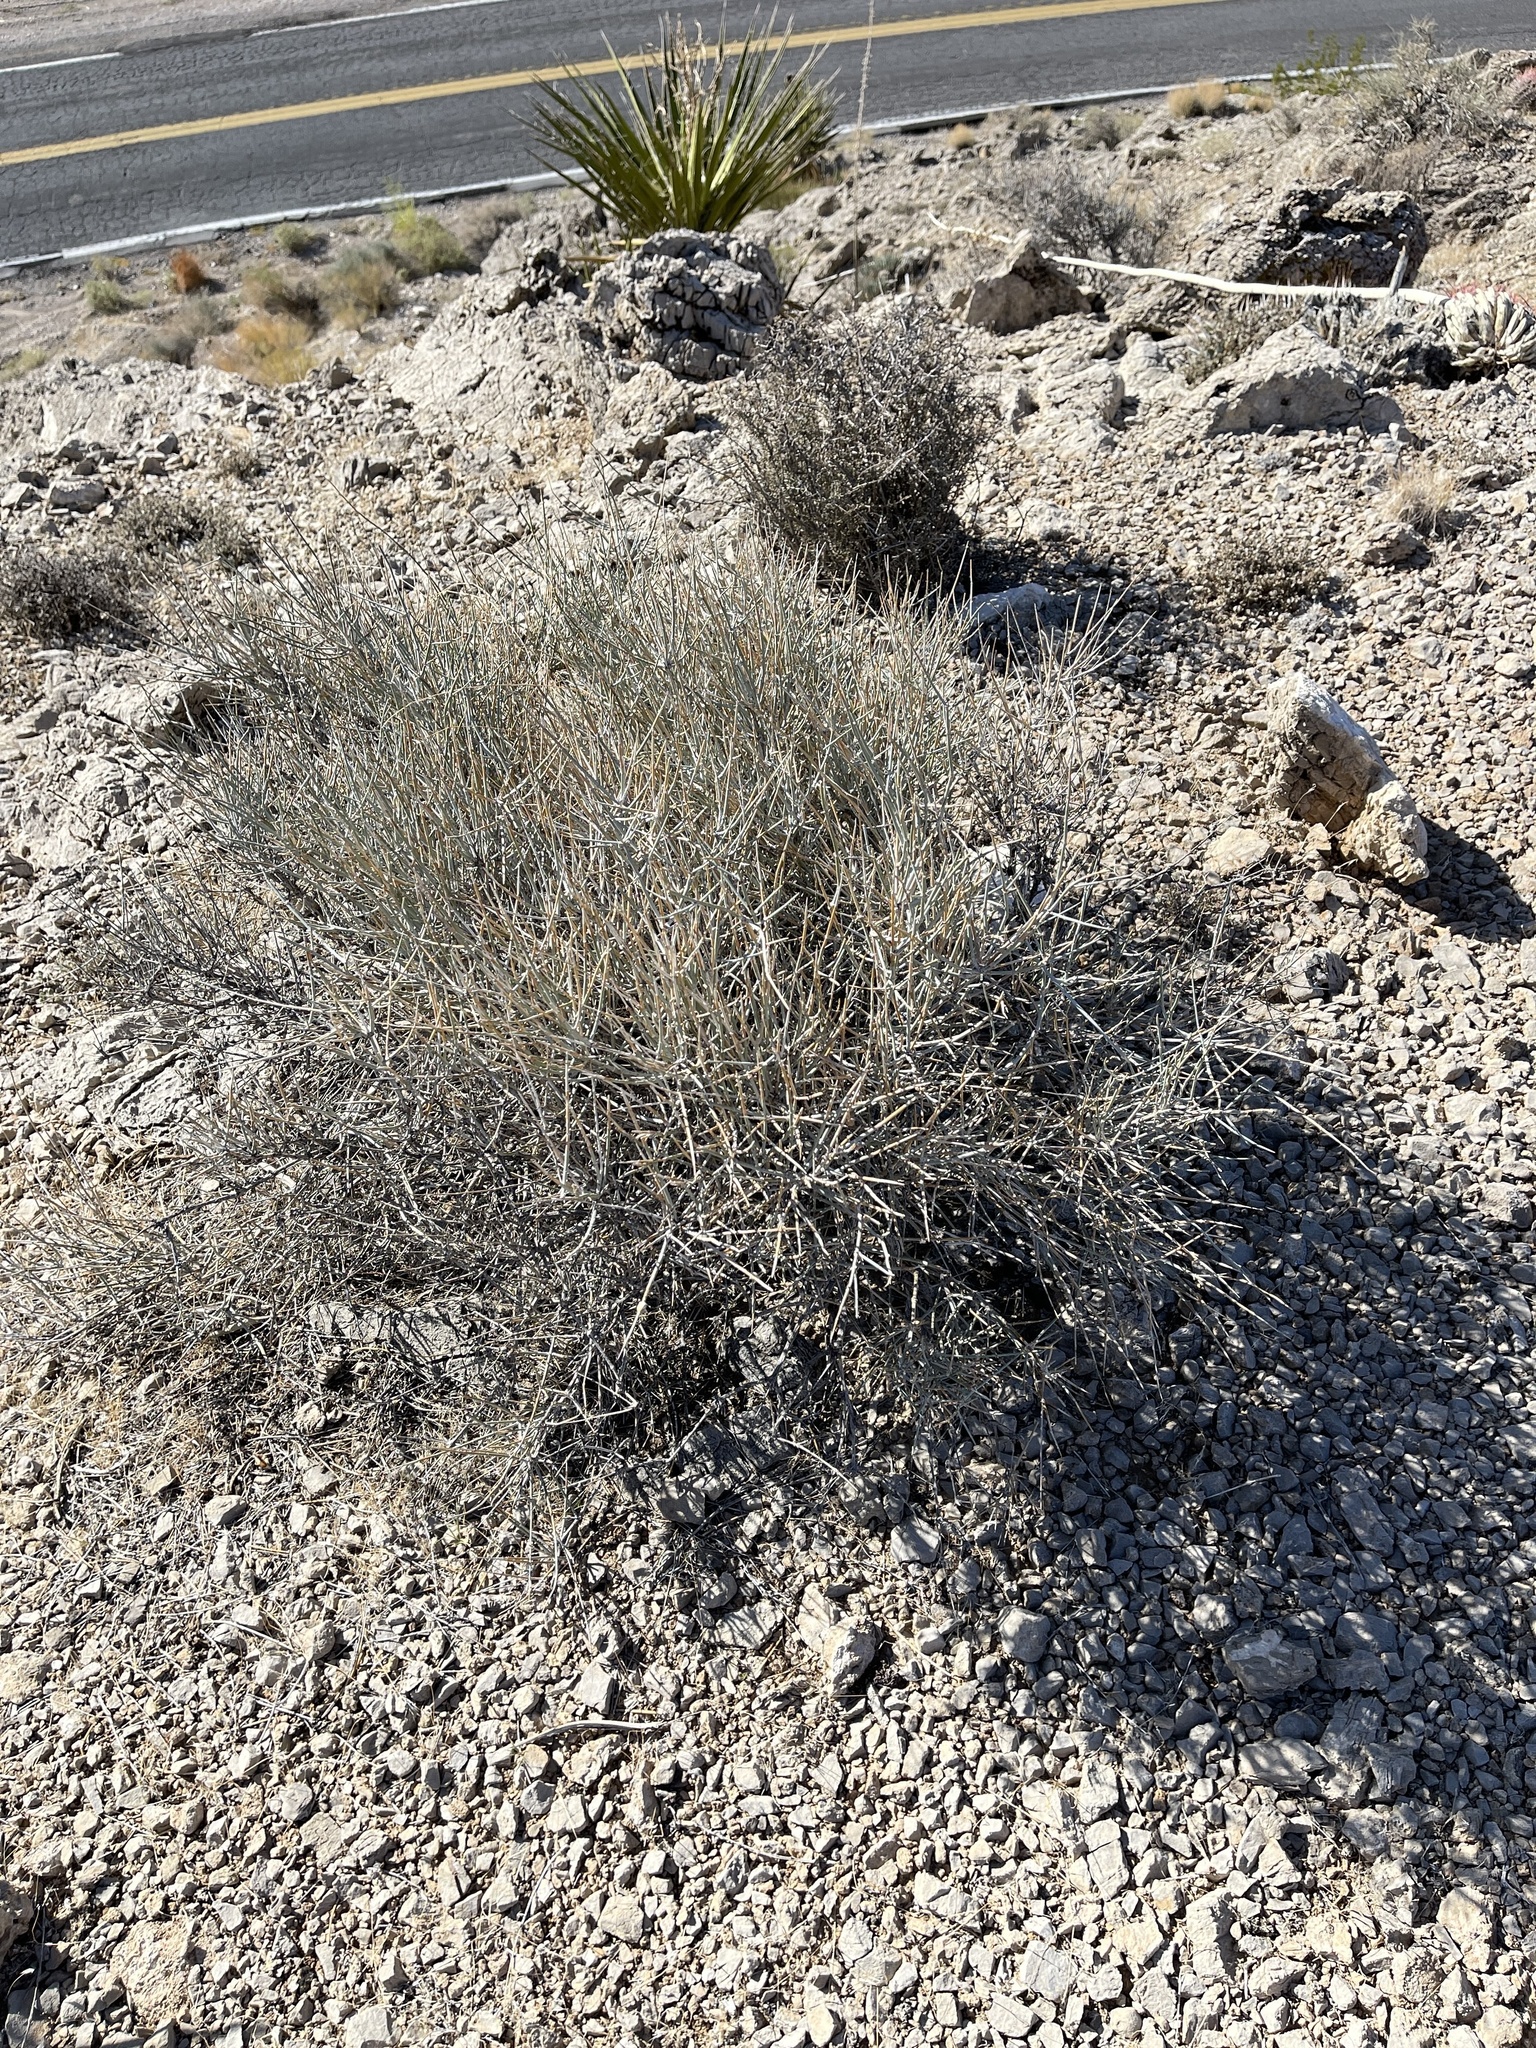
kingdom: Plantae
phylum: Tracheophyta
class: Gnetopsida
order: Ephedrales
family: Ephedraceae
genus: Ephedra
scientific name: Ephedra nevadensis
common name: Gray ephedra
